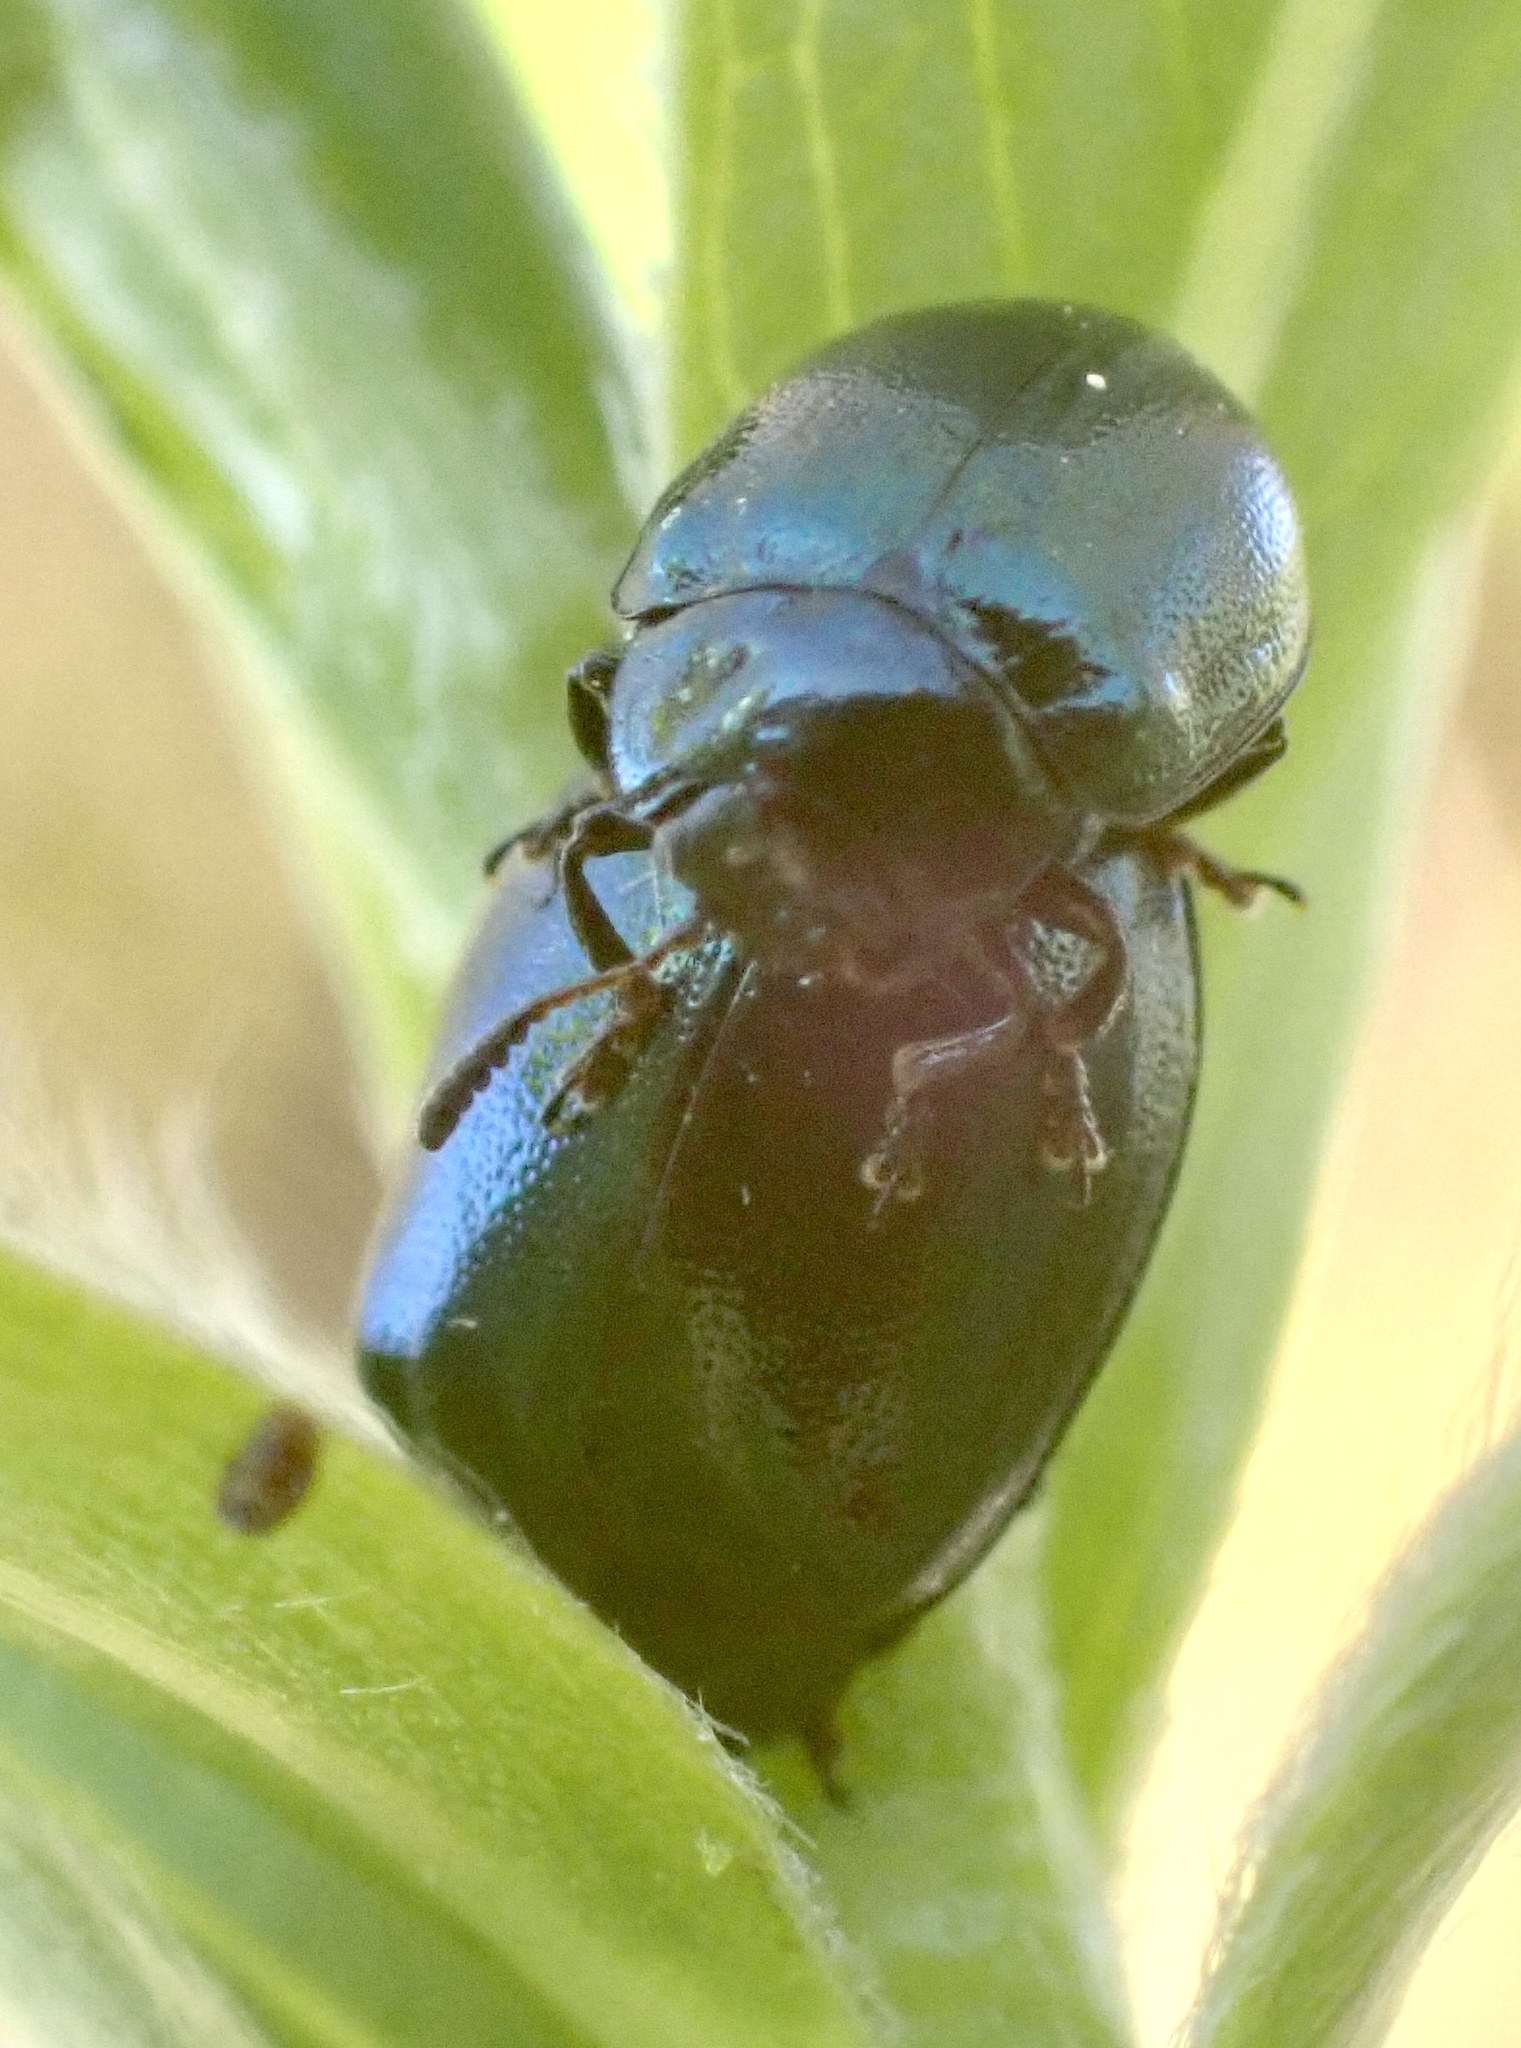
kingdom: Animalia
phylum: Arthropoda
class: Insecta
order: Coleoptera
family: Chrysomelidae
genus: Plagiodera
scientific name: Plagiodera versicolora
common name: Imported willow leaf beetle
